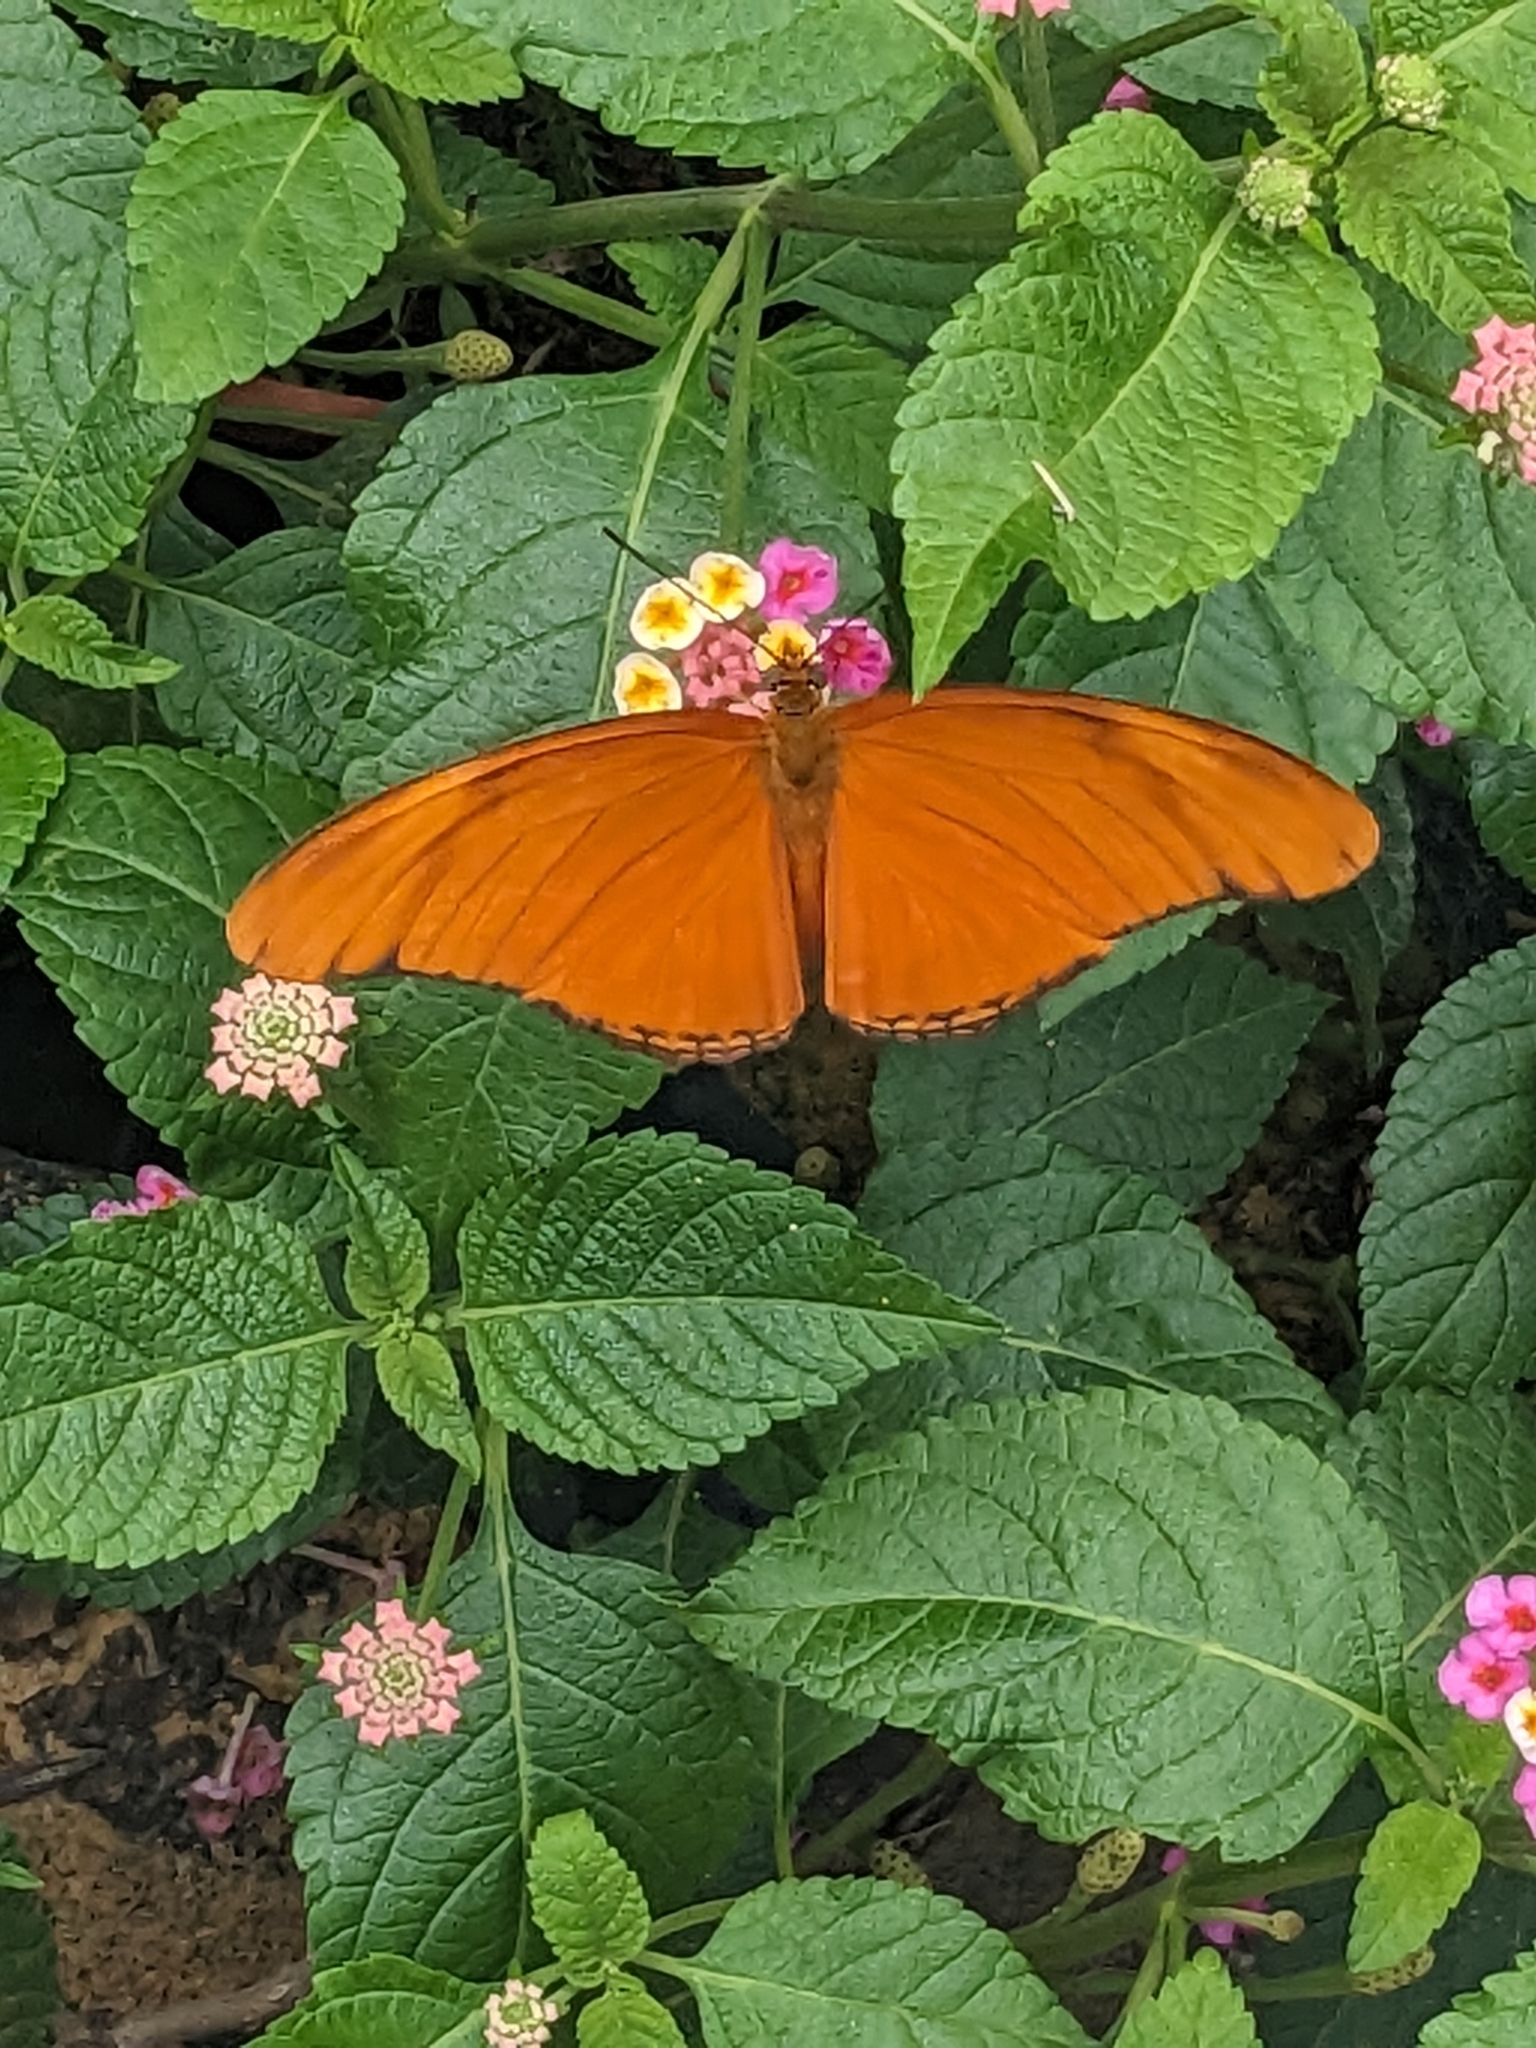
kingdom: Animalia
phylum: Arthropoda
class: Insecta
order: Lepidoptera
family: Nymphalidae
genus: Dryas
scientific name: Dryas iulia
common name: Flambeau
